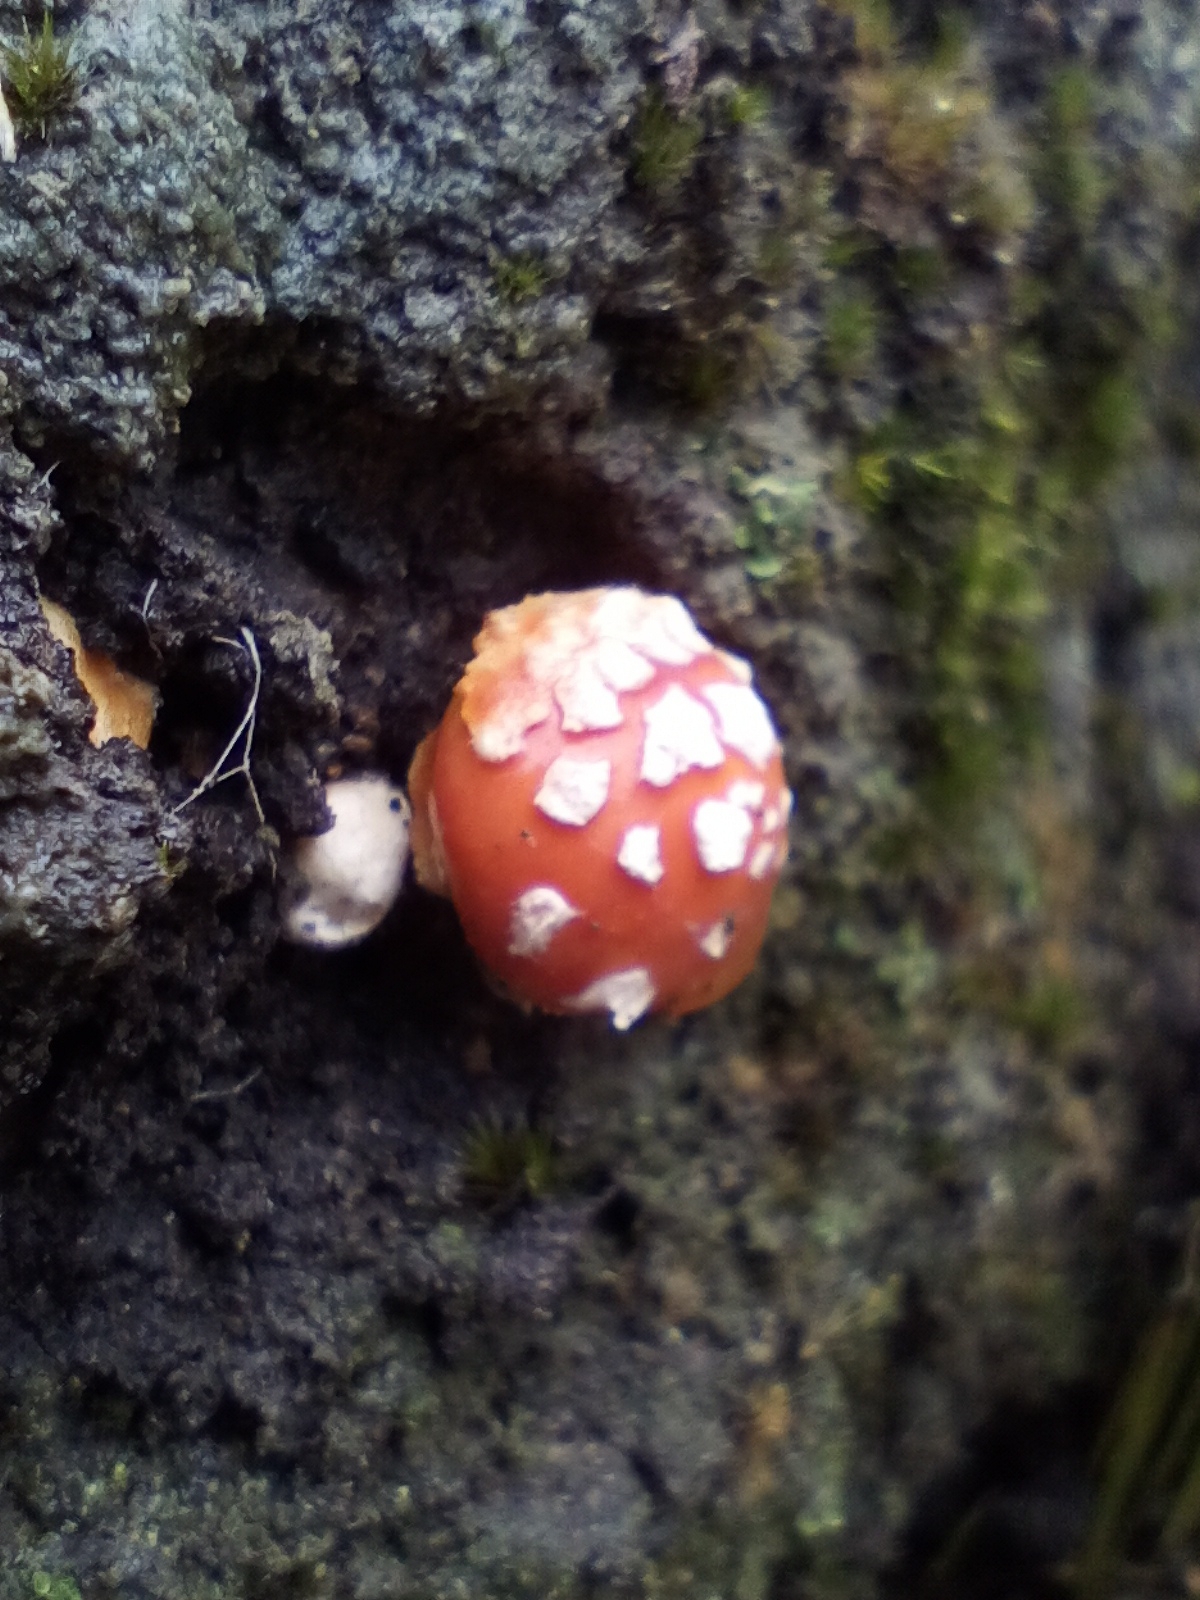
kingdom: Fungi
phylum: Basidiomycota
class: Agaricomycetes
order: Agaricales
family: Amanitaceae
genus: Amanita
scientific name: Amanita xanthocephala
